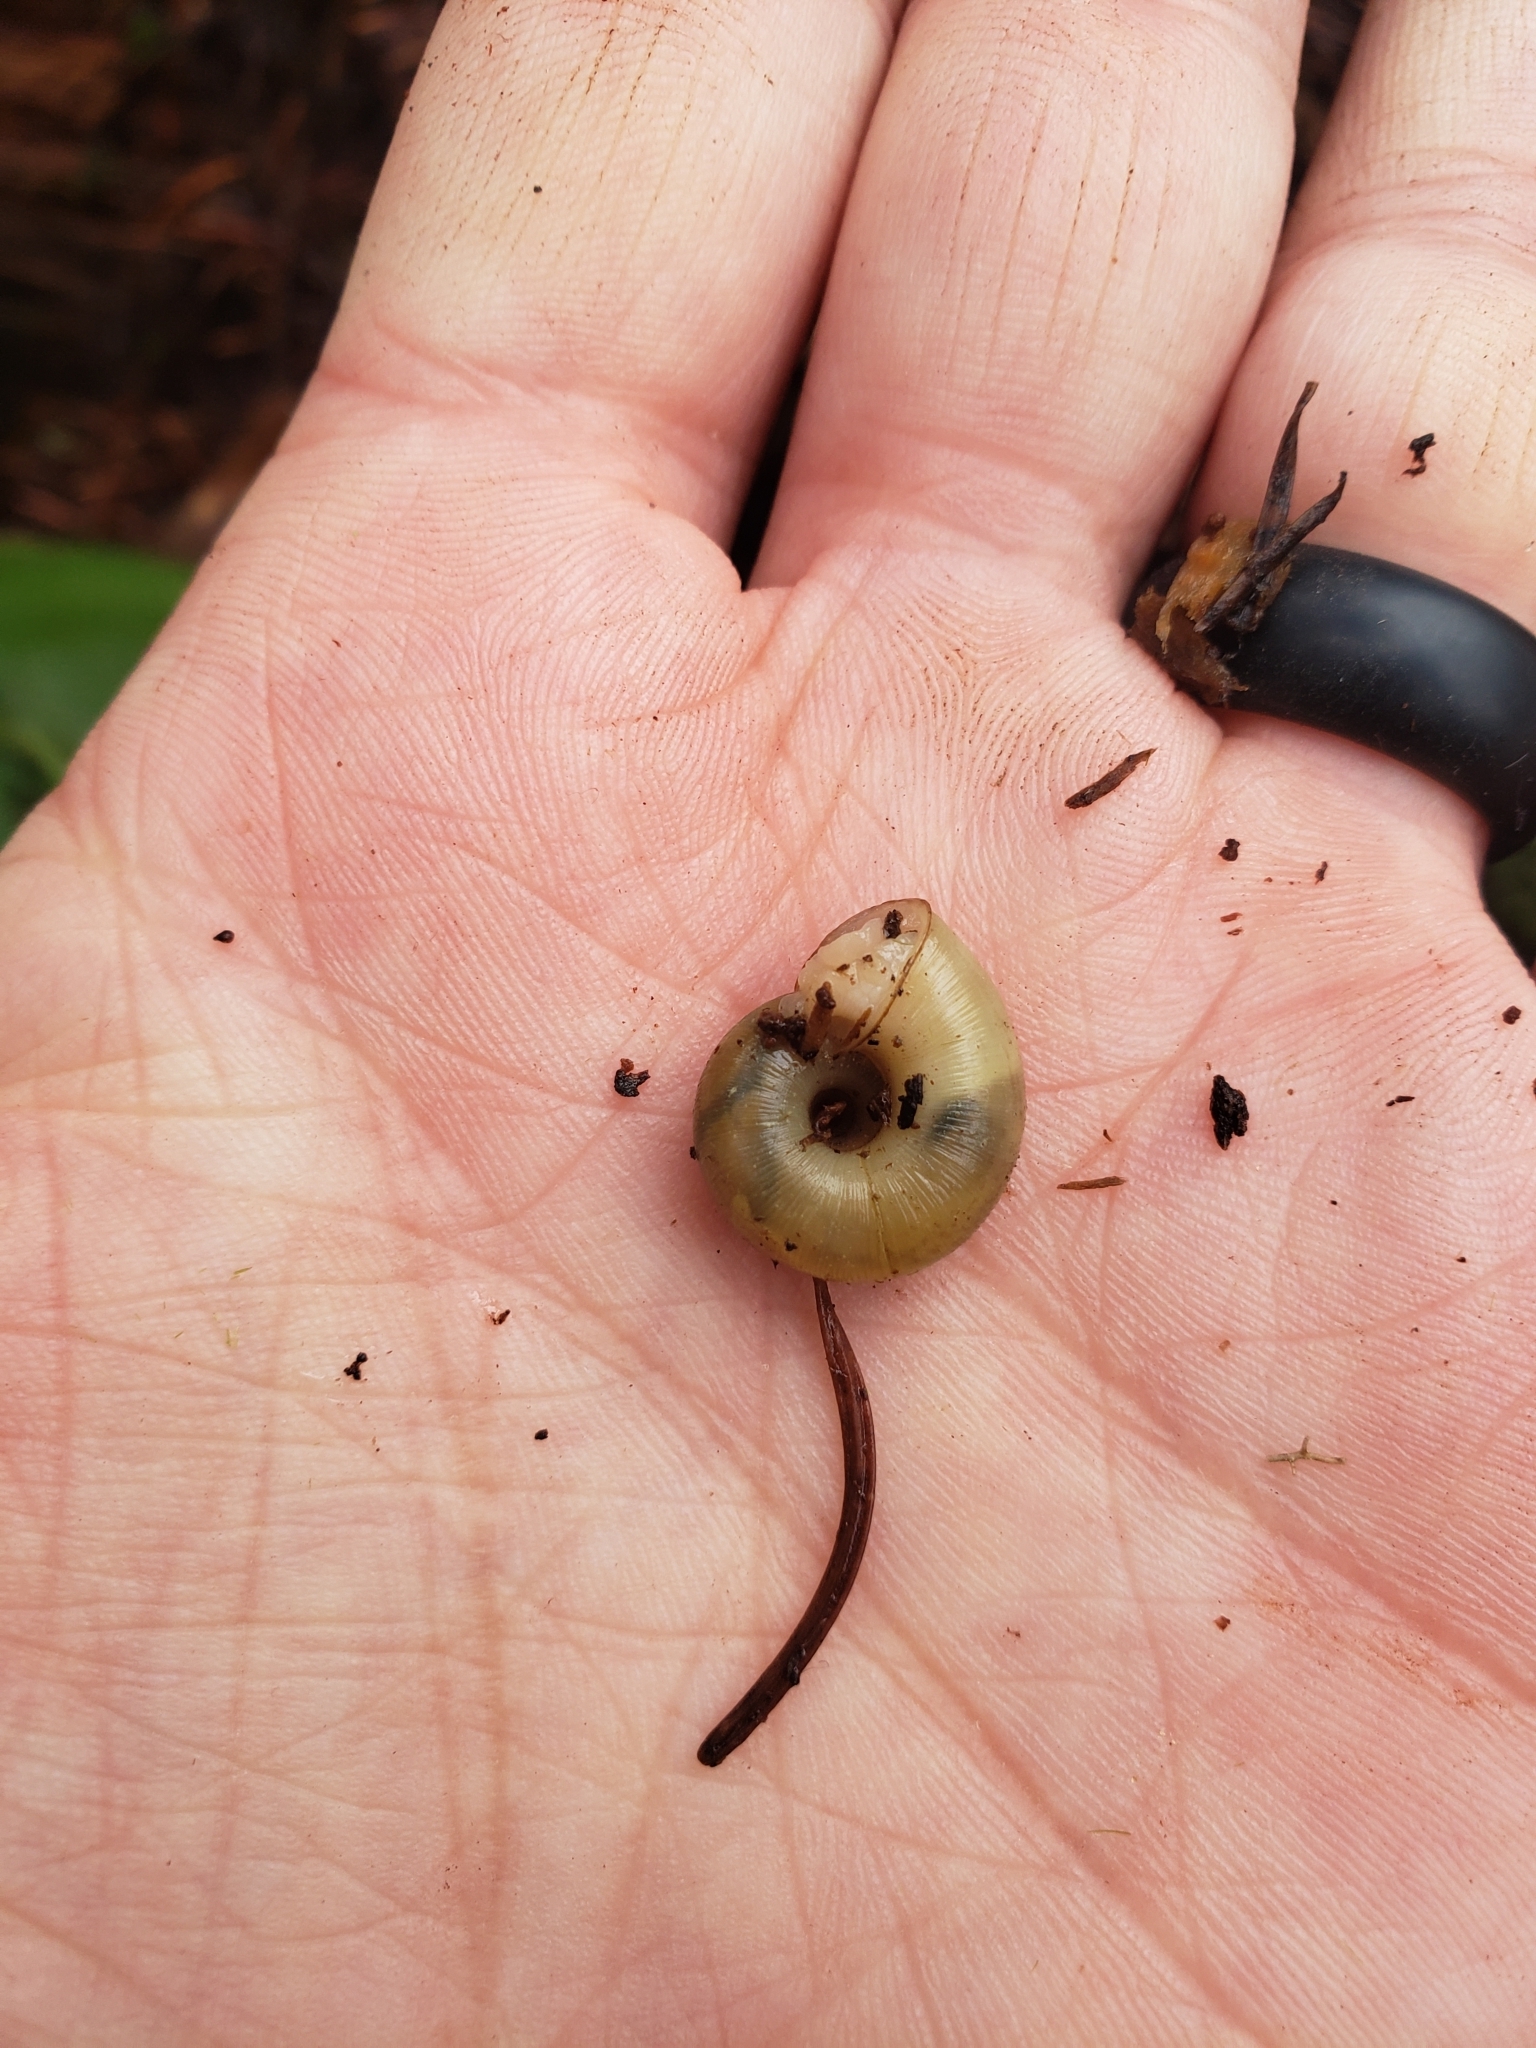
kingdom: Animalia
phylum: Mollusca
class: Gastropoda
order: Stylommatophora
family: Haplotrematidae
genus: Ancotrema
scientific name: Ancotrema sportella
